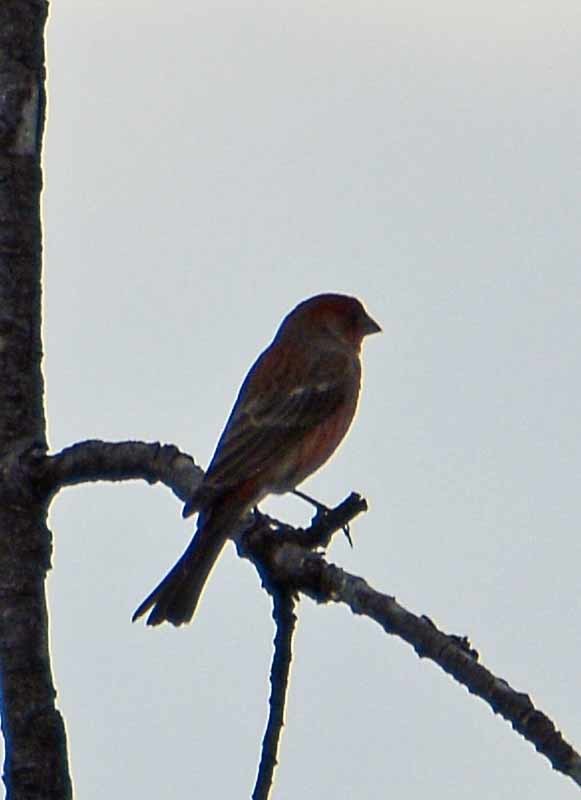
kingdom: Animalia
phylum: Chordata
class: Aves
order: Passeriformes
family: Fringillidae
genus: Haemorhous
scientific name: Haemorhous mexicanus
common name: House finch
